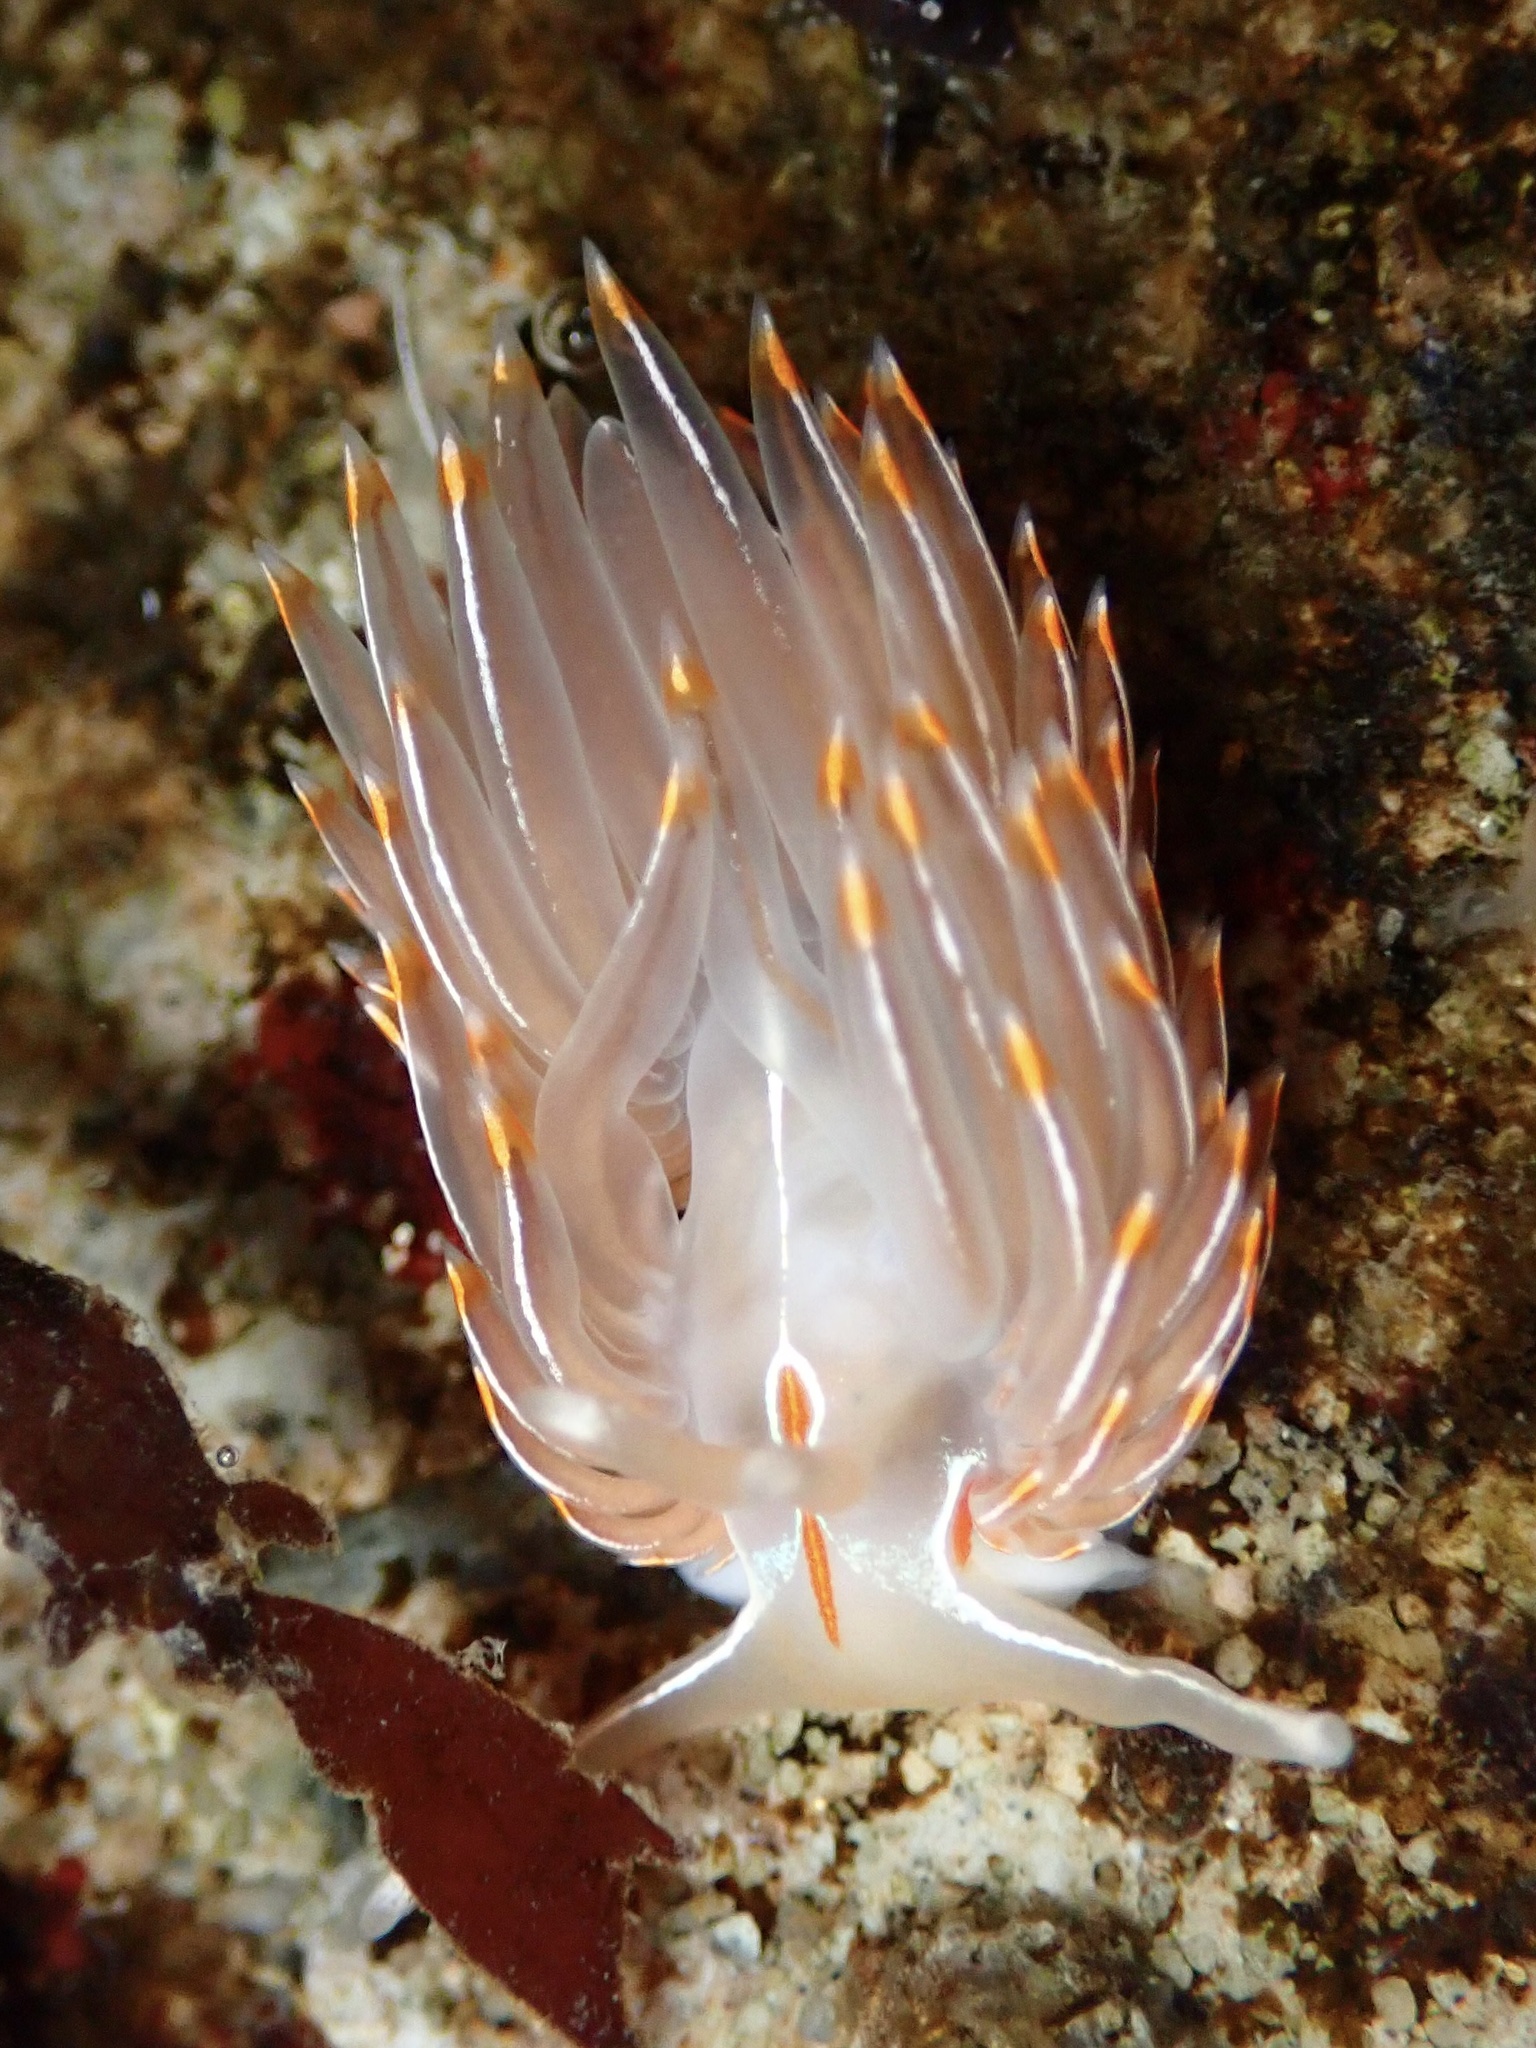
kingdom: Animalia
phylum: Mollusca
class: Gastropoda
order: Nudibranchia
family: Myrrhinidae
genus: Hermissenda
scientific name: Hermissenda crassicornis
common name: Hermissenda
